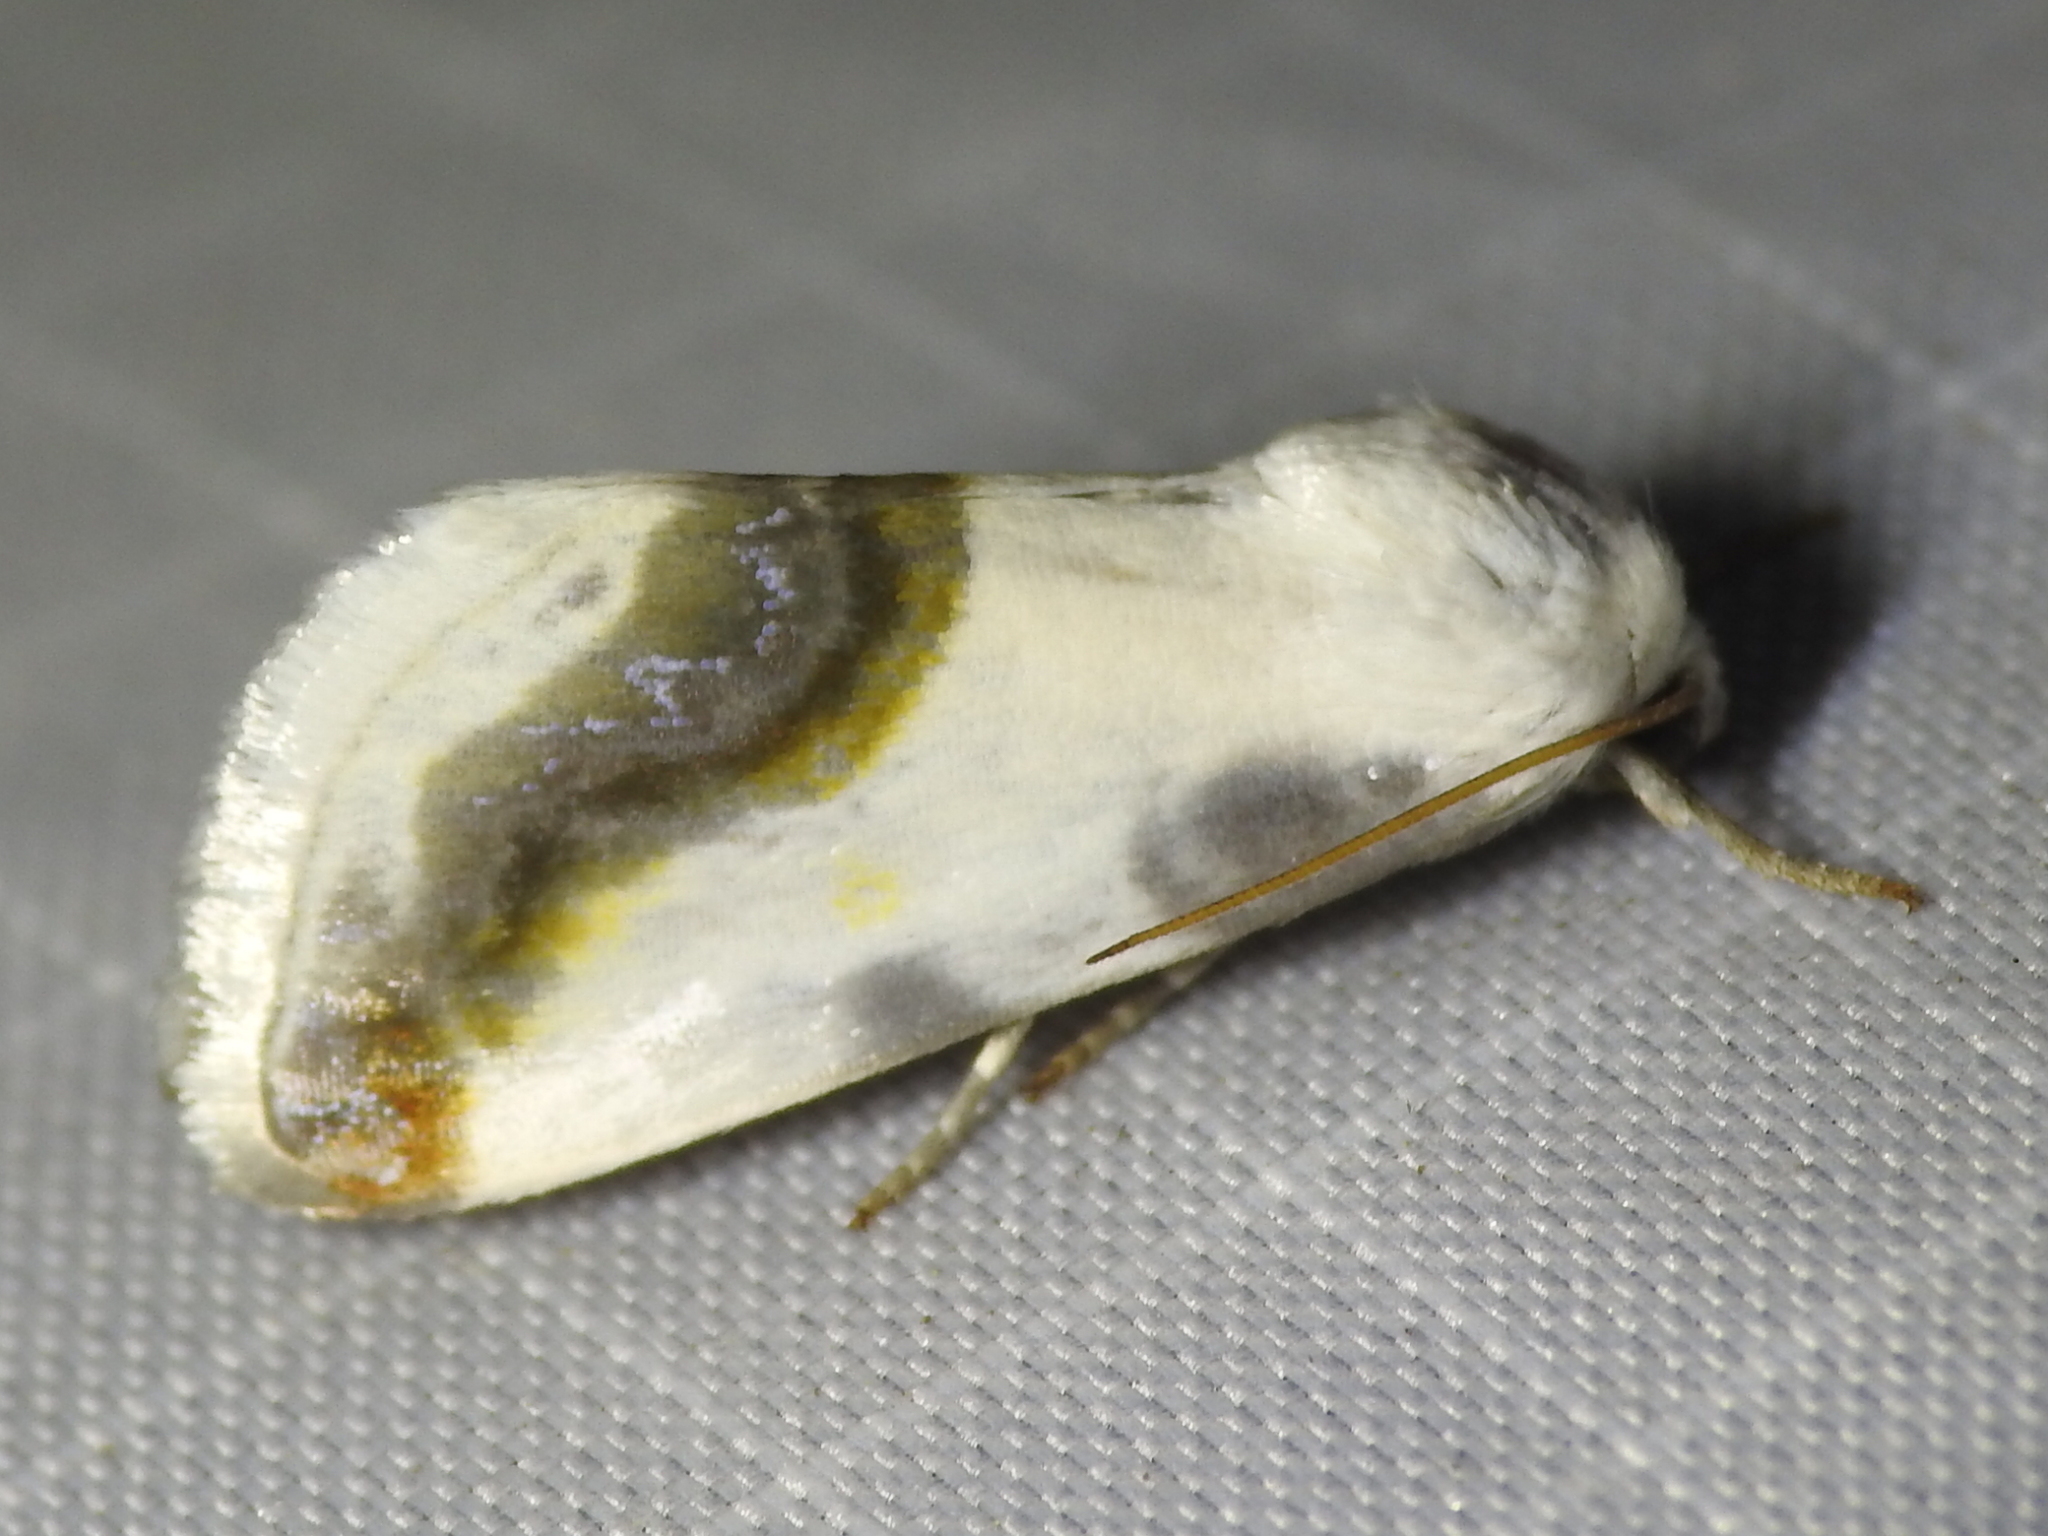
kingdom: Animalia
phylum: Arthropoda
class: Insecta
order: Lepidoptera
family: Noctuidae
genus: Acontia
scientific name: Acontia cretata
